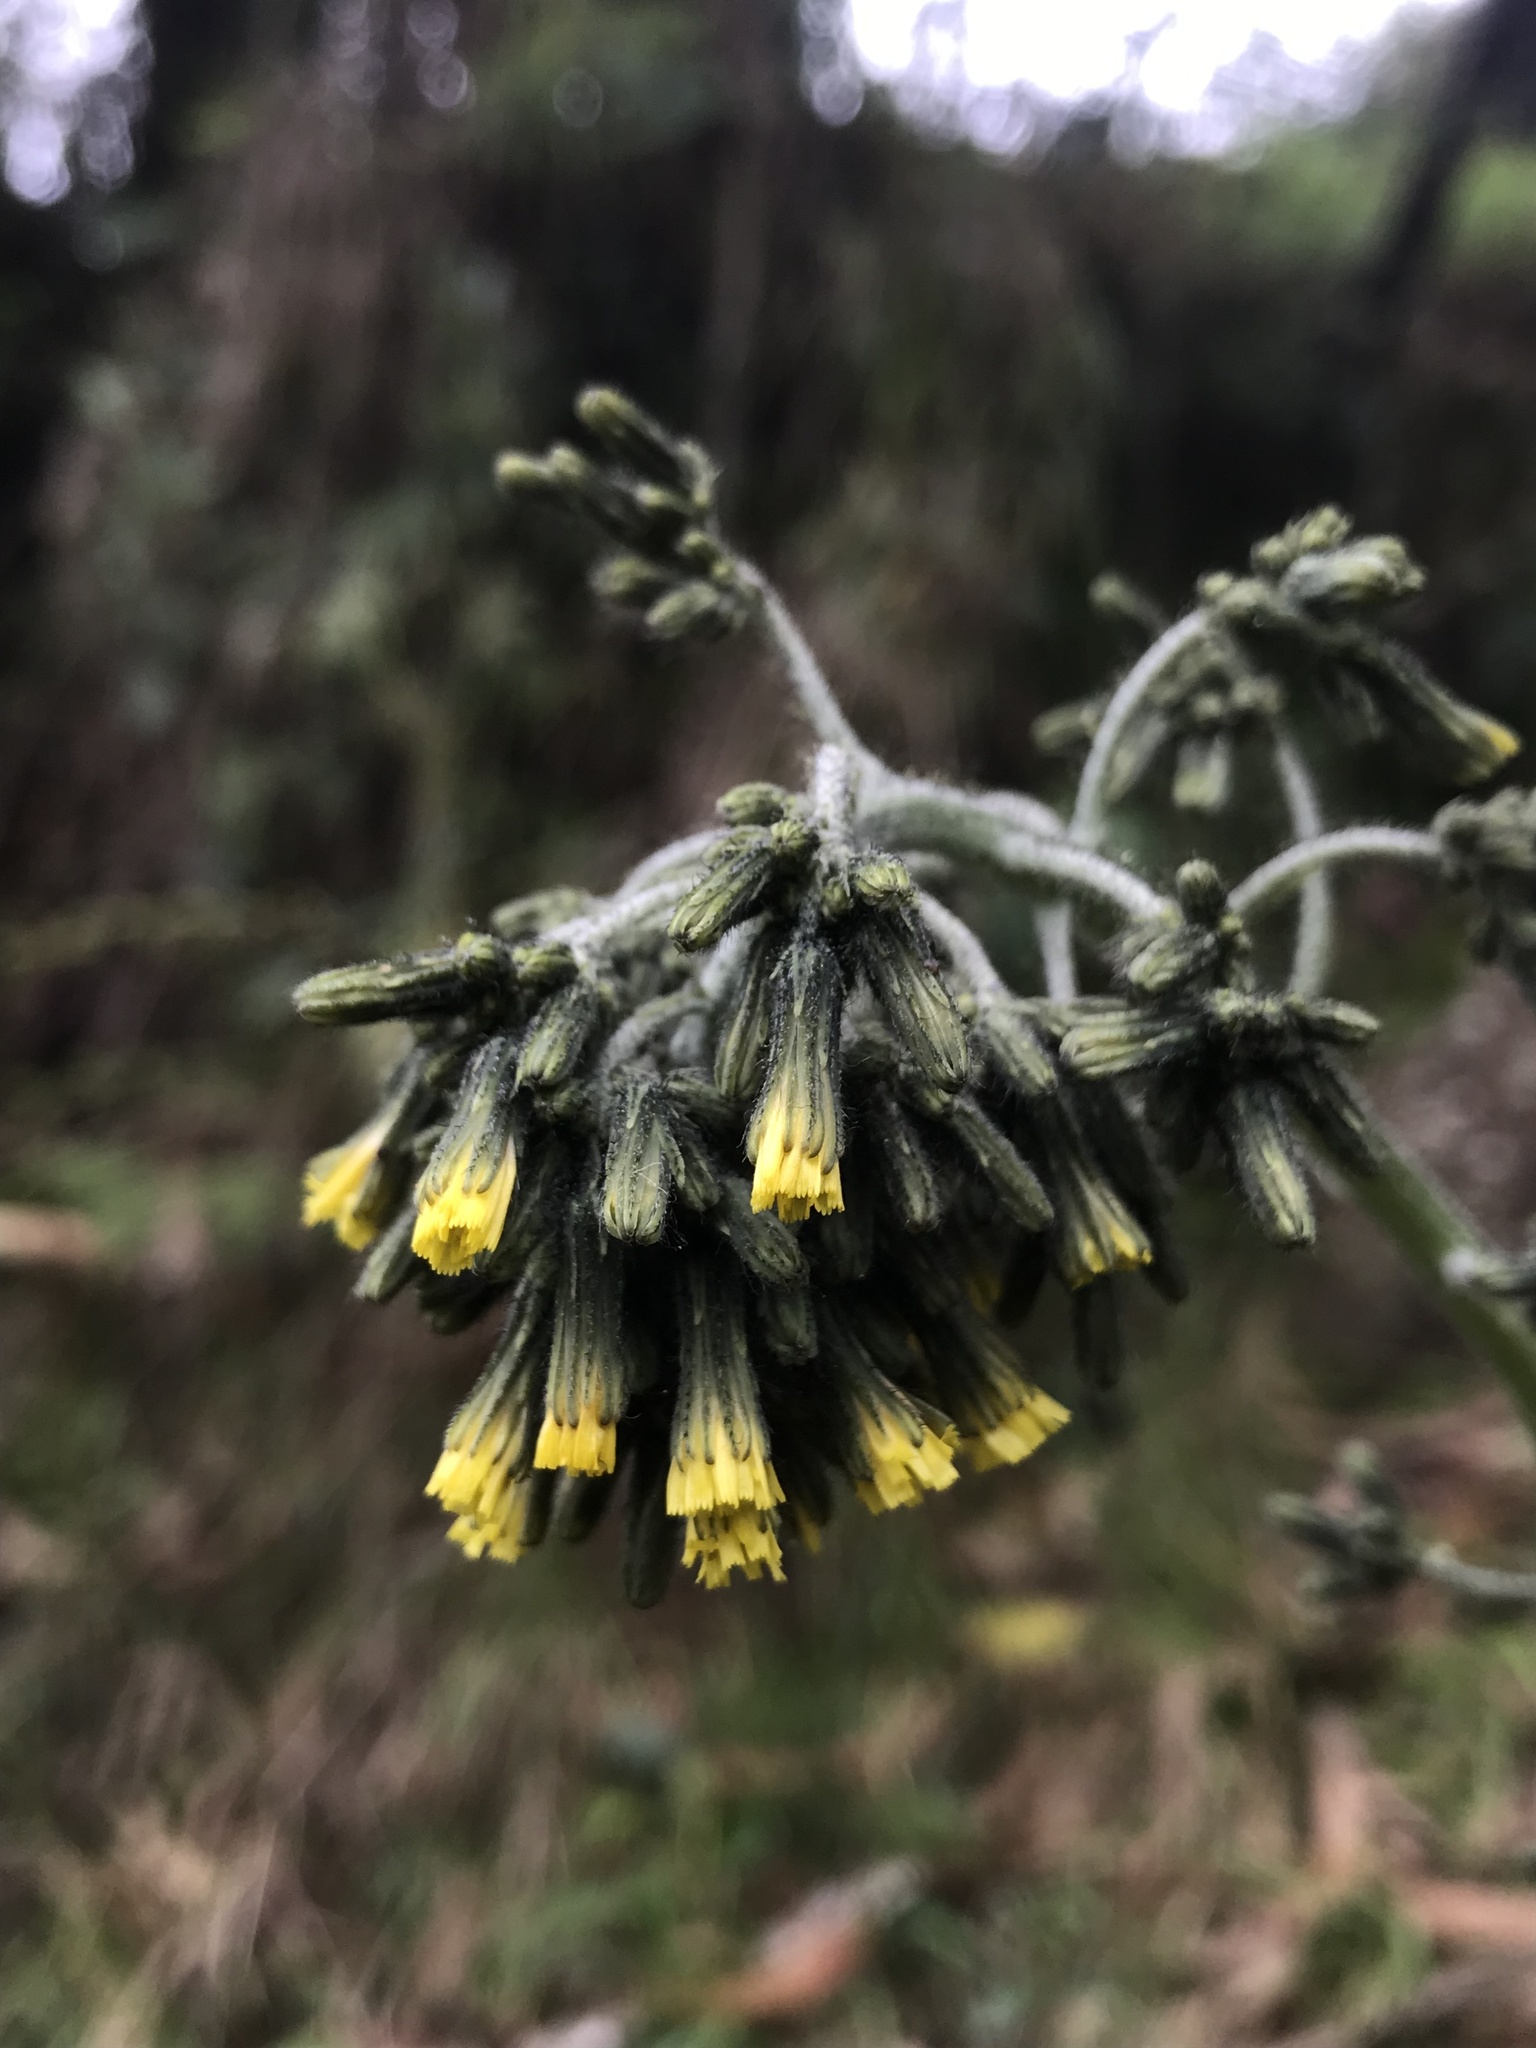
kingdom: Plantae
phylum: Tracheophyta
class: Magnoliopsida
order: Asterales
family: Asteraceae
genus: Hieracium
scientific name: Hieracium avilae
